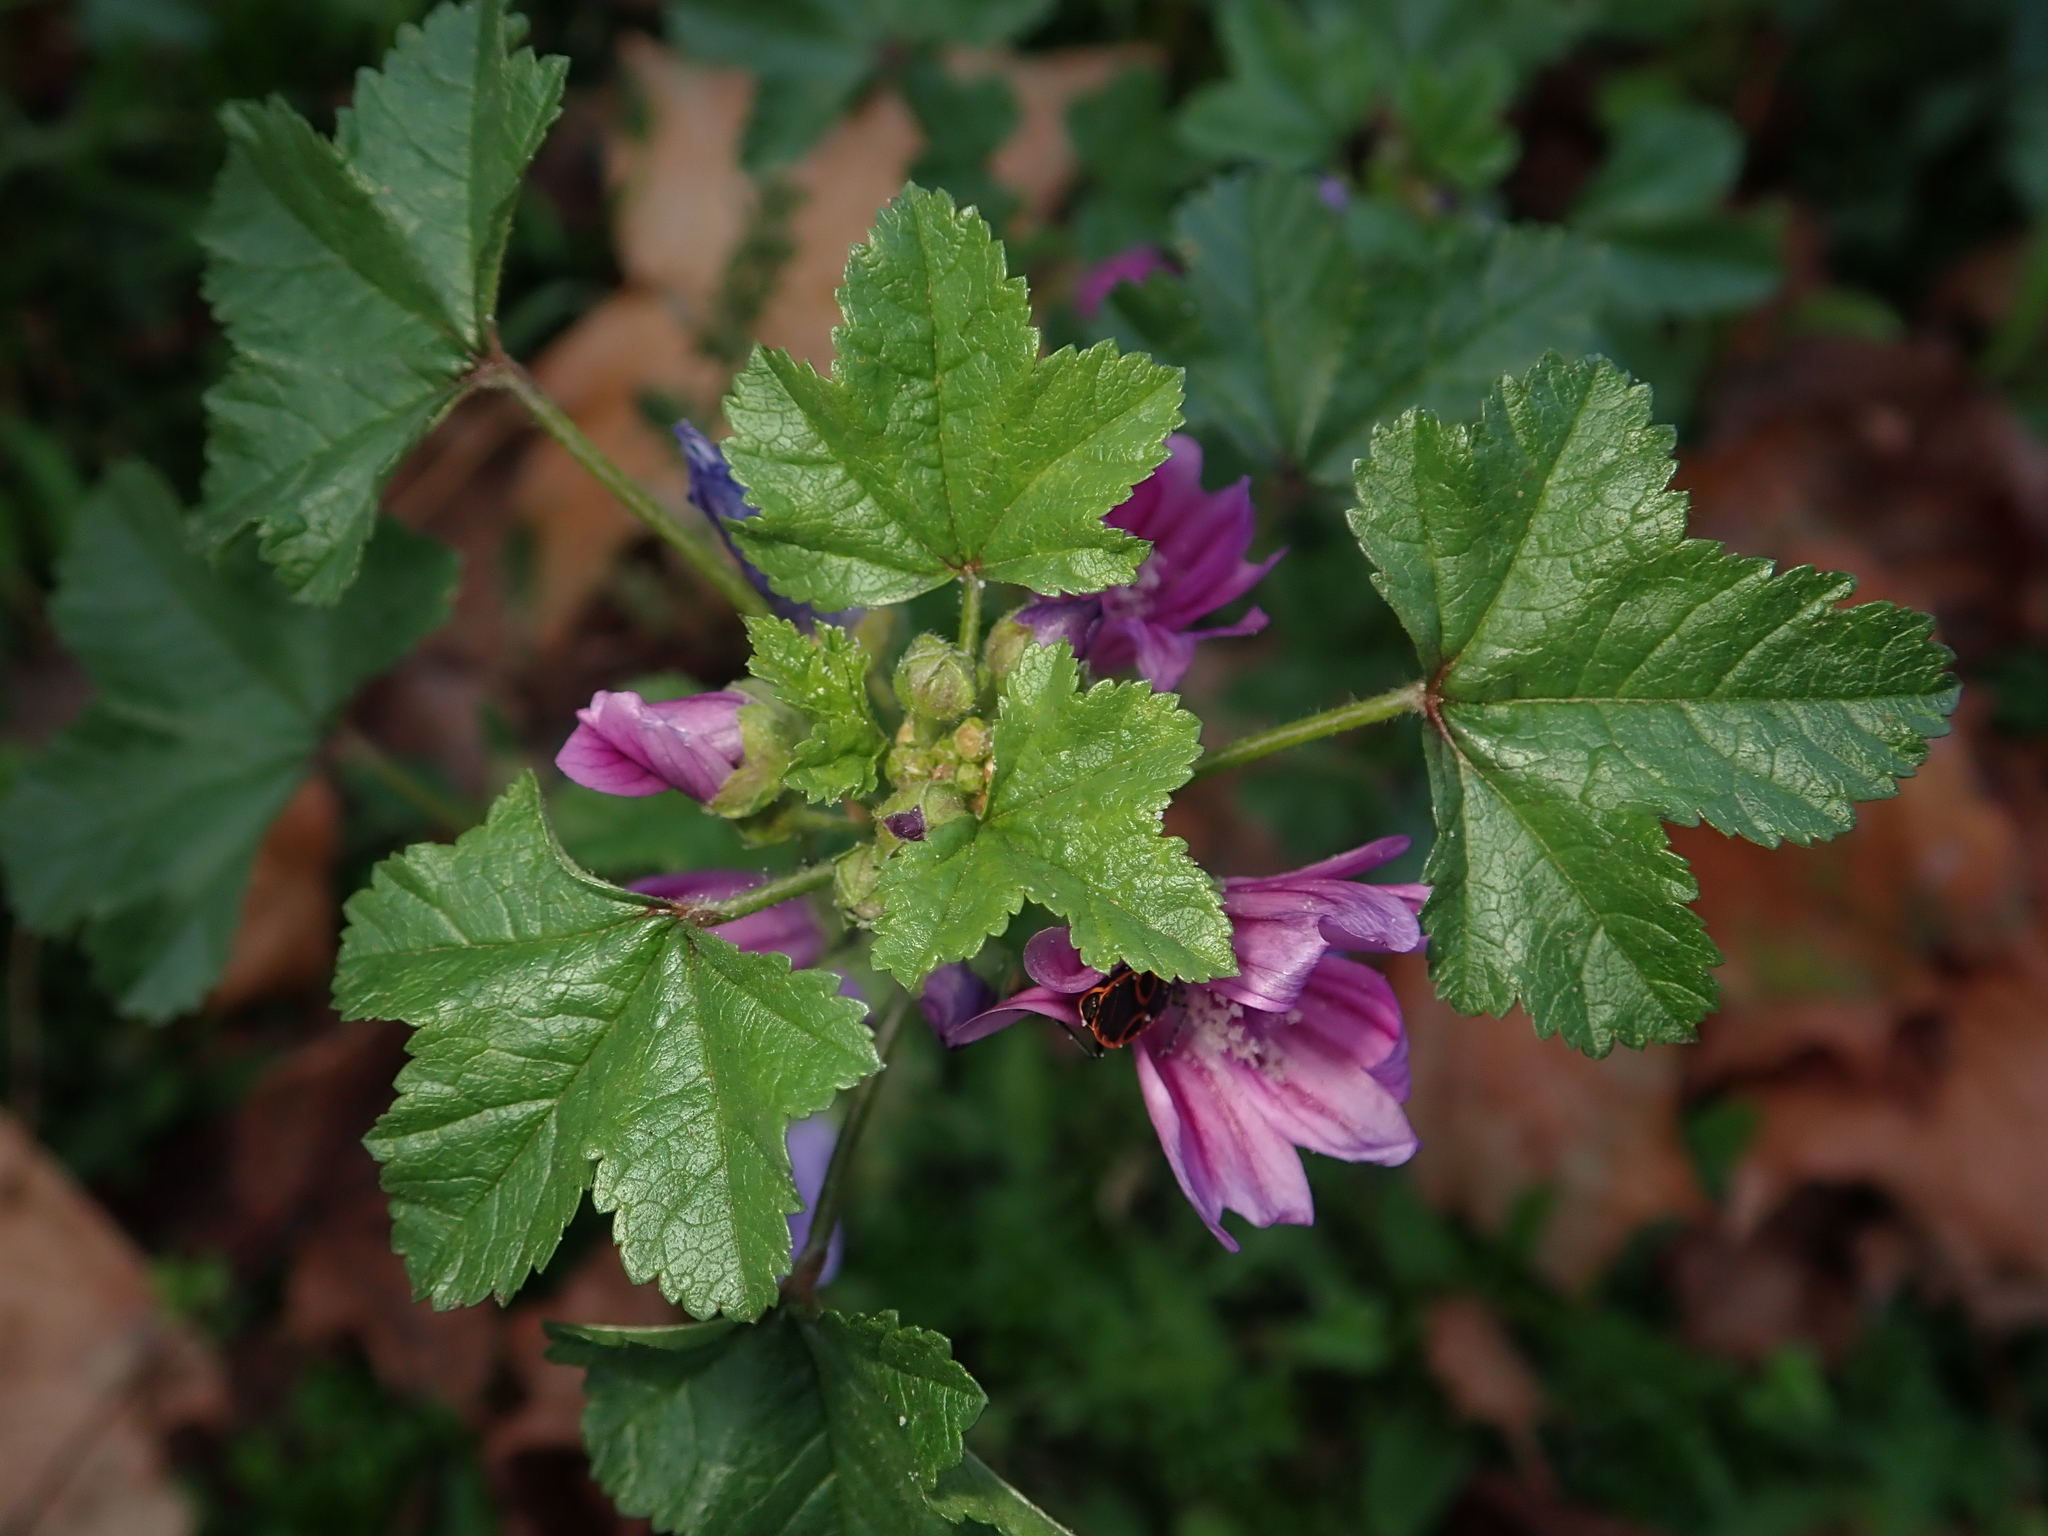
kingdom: Plantae
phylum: Tracheophyta
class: Magnoliopsida
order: Malvales
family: Malvaceae
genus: Malva
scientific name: Malva sylvestris
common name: Common mallow
